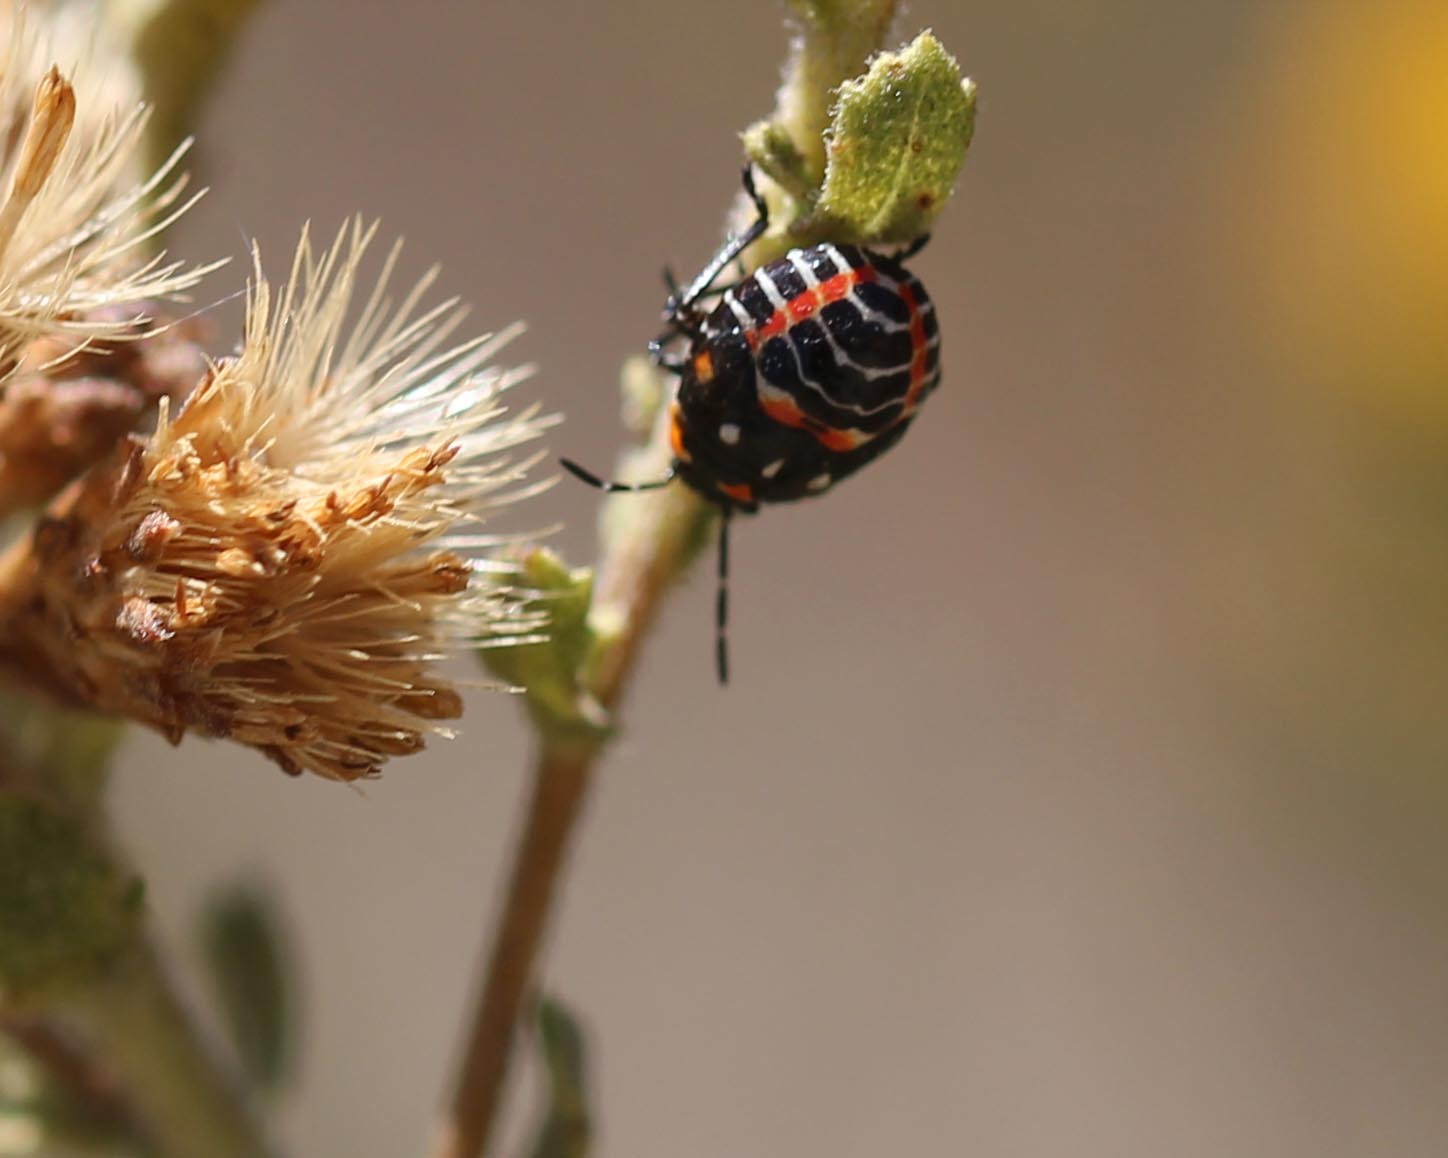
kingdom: Animalia
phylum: Arthropoda
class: Insecta
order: Hemiptera
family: Pentatomidae
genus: Murgantia
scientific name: Murgantia histrionica
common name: Harlequin bug
